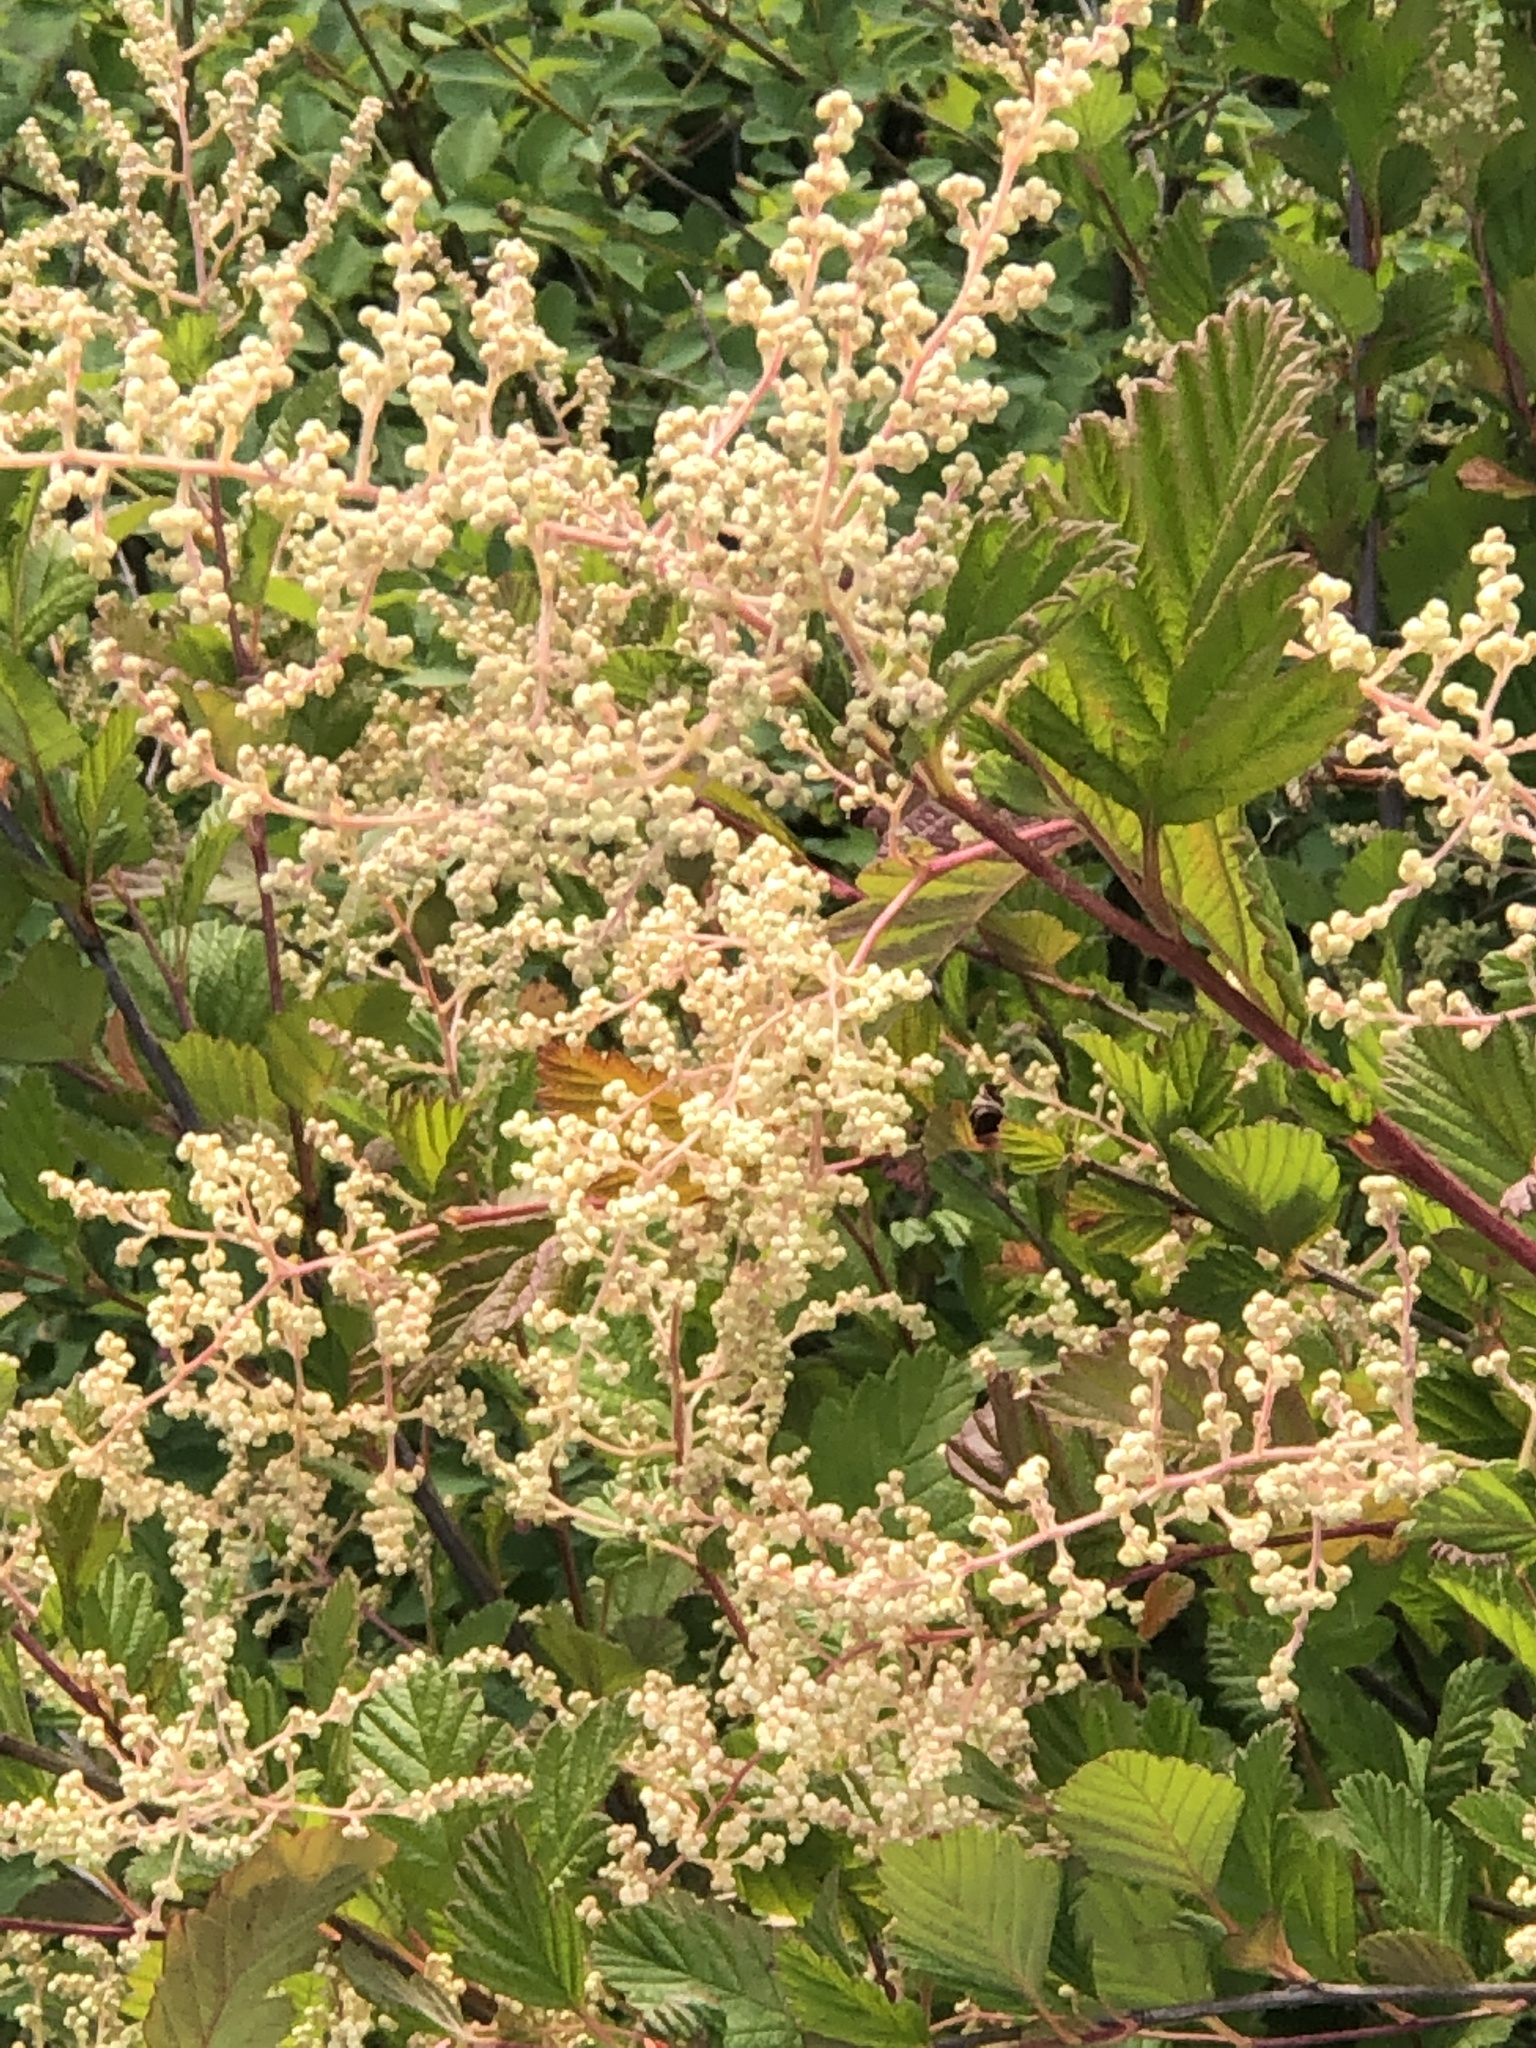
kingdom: Plantae
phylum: Tracheophyta
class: Magnoliopsida
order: Rosales
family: Rosaceae
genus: Holodiscus
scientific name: Holodiscus discolor
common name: Oceanspray
